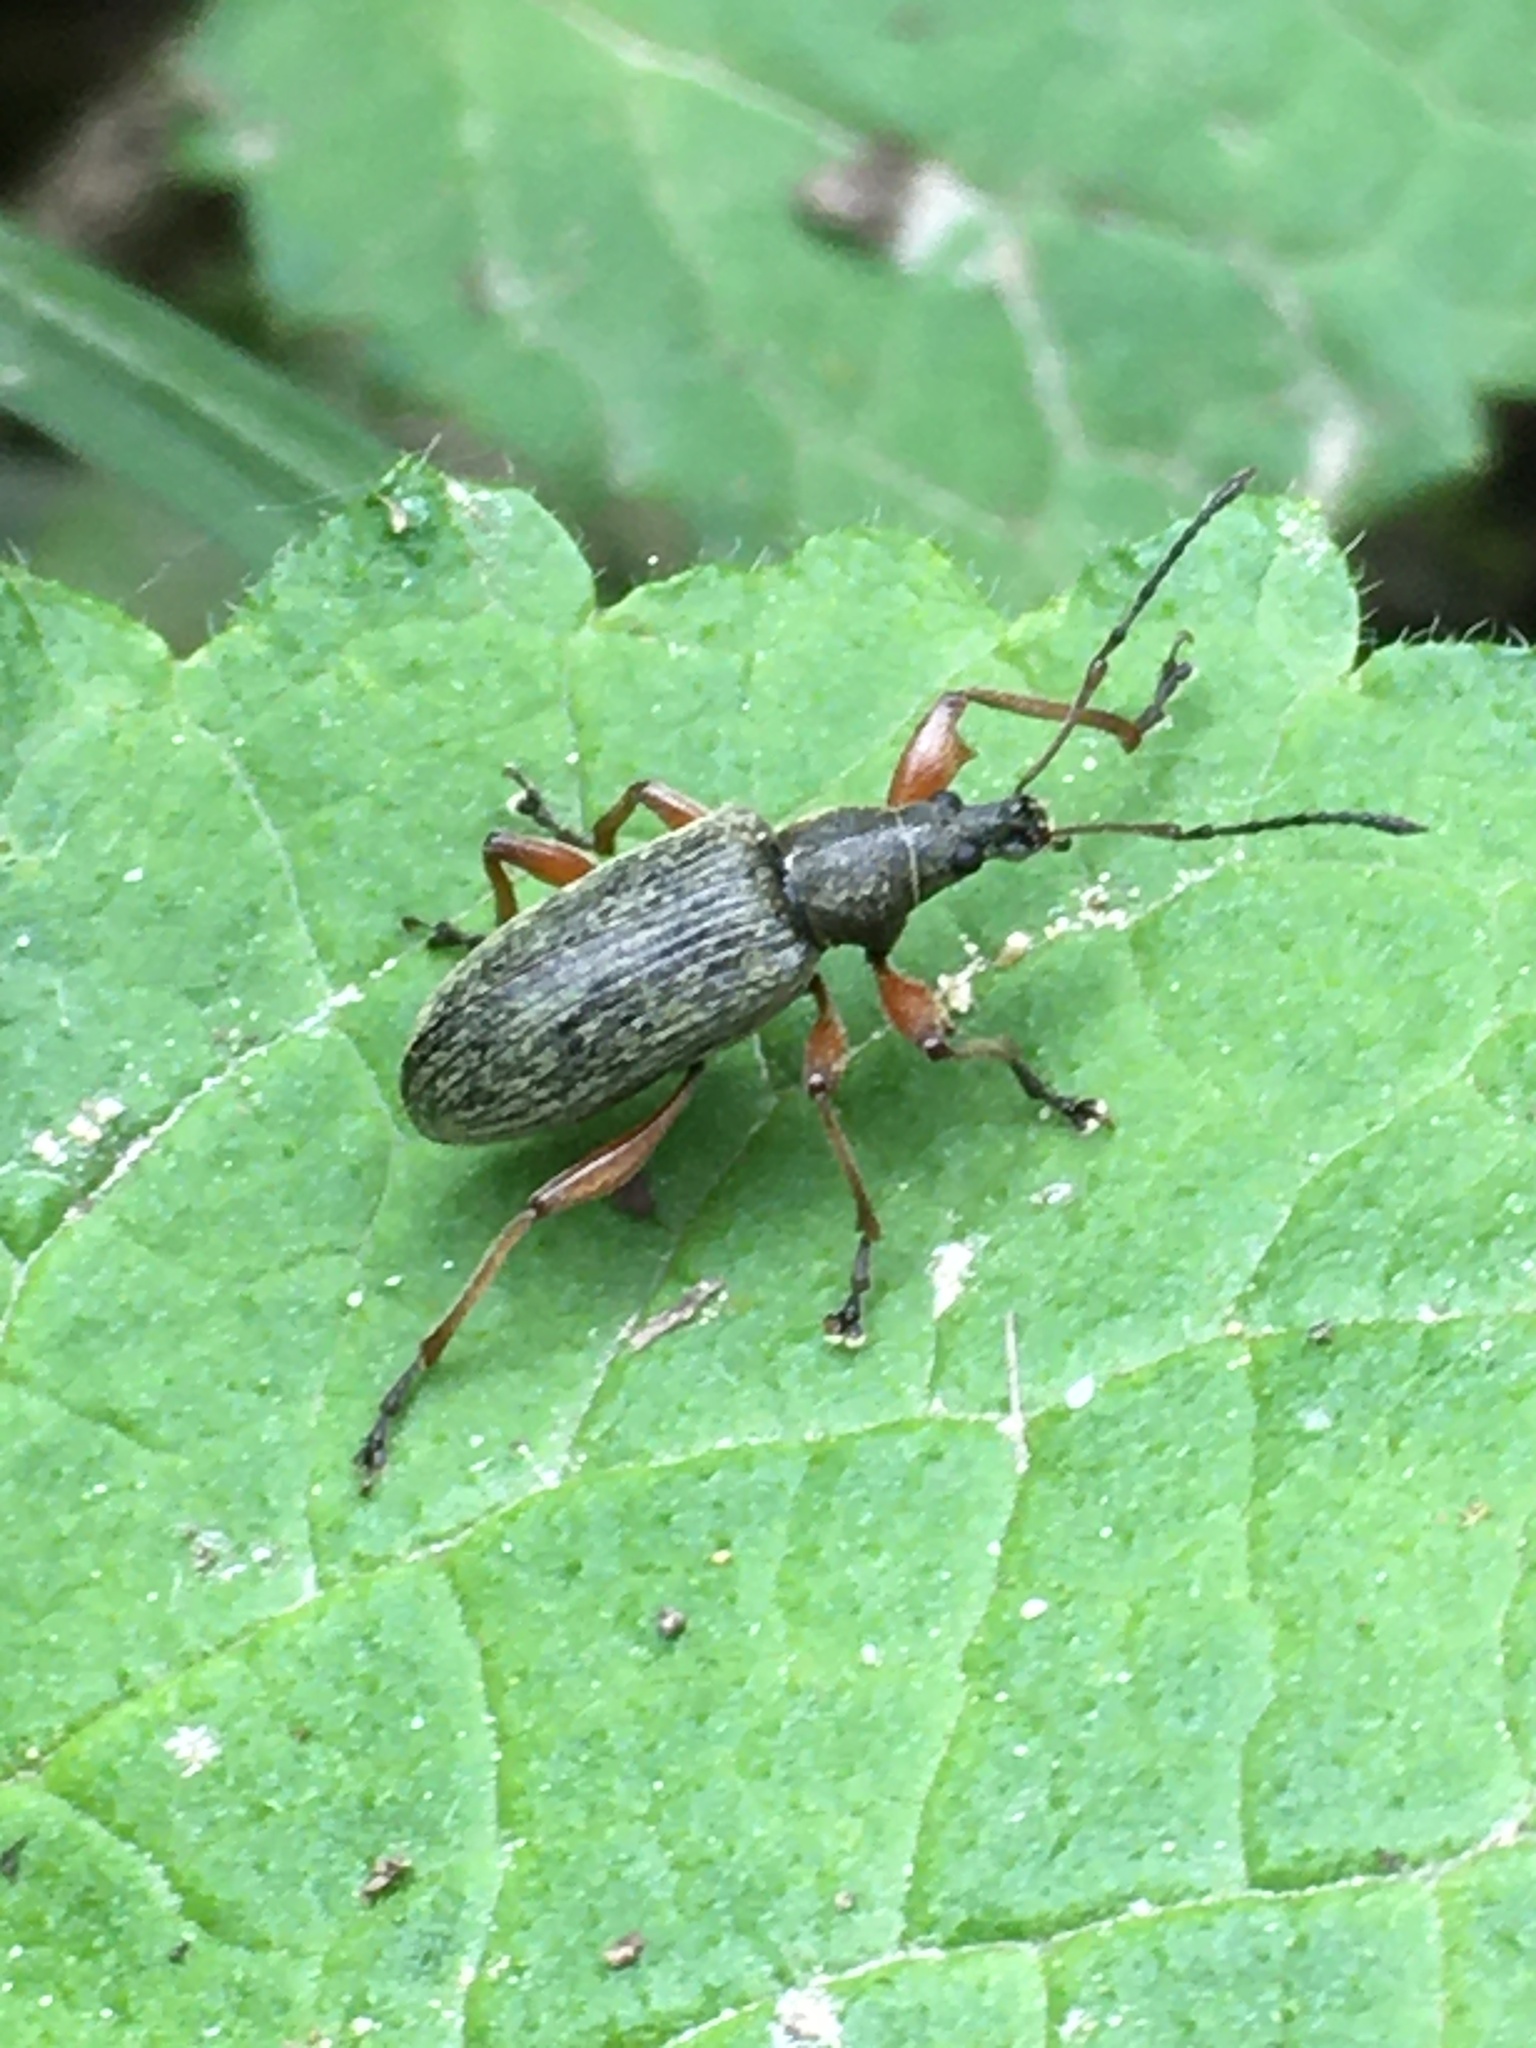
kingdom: Animalia
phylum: Arthropoda
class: Insecta
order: Coleoptera
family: Curculionidae
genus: Phyllobius
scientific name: Phyllobius glaucus
